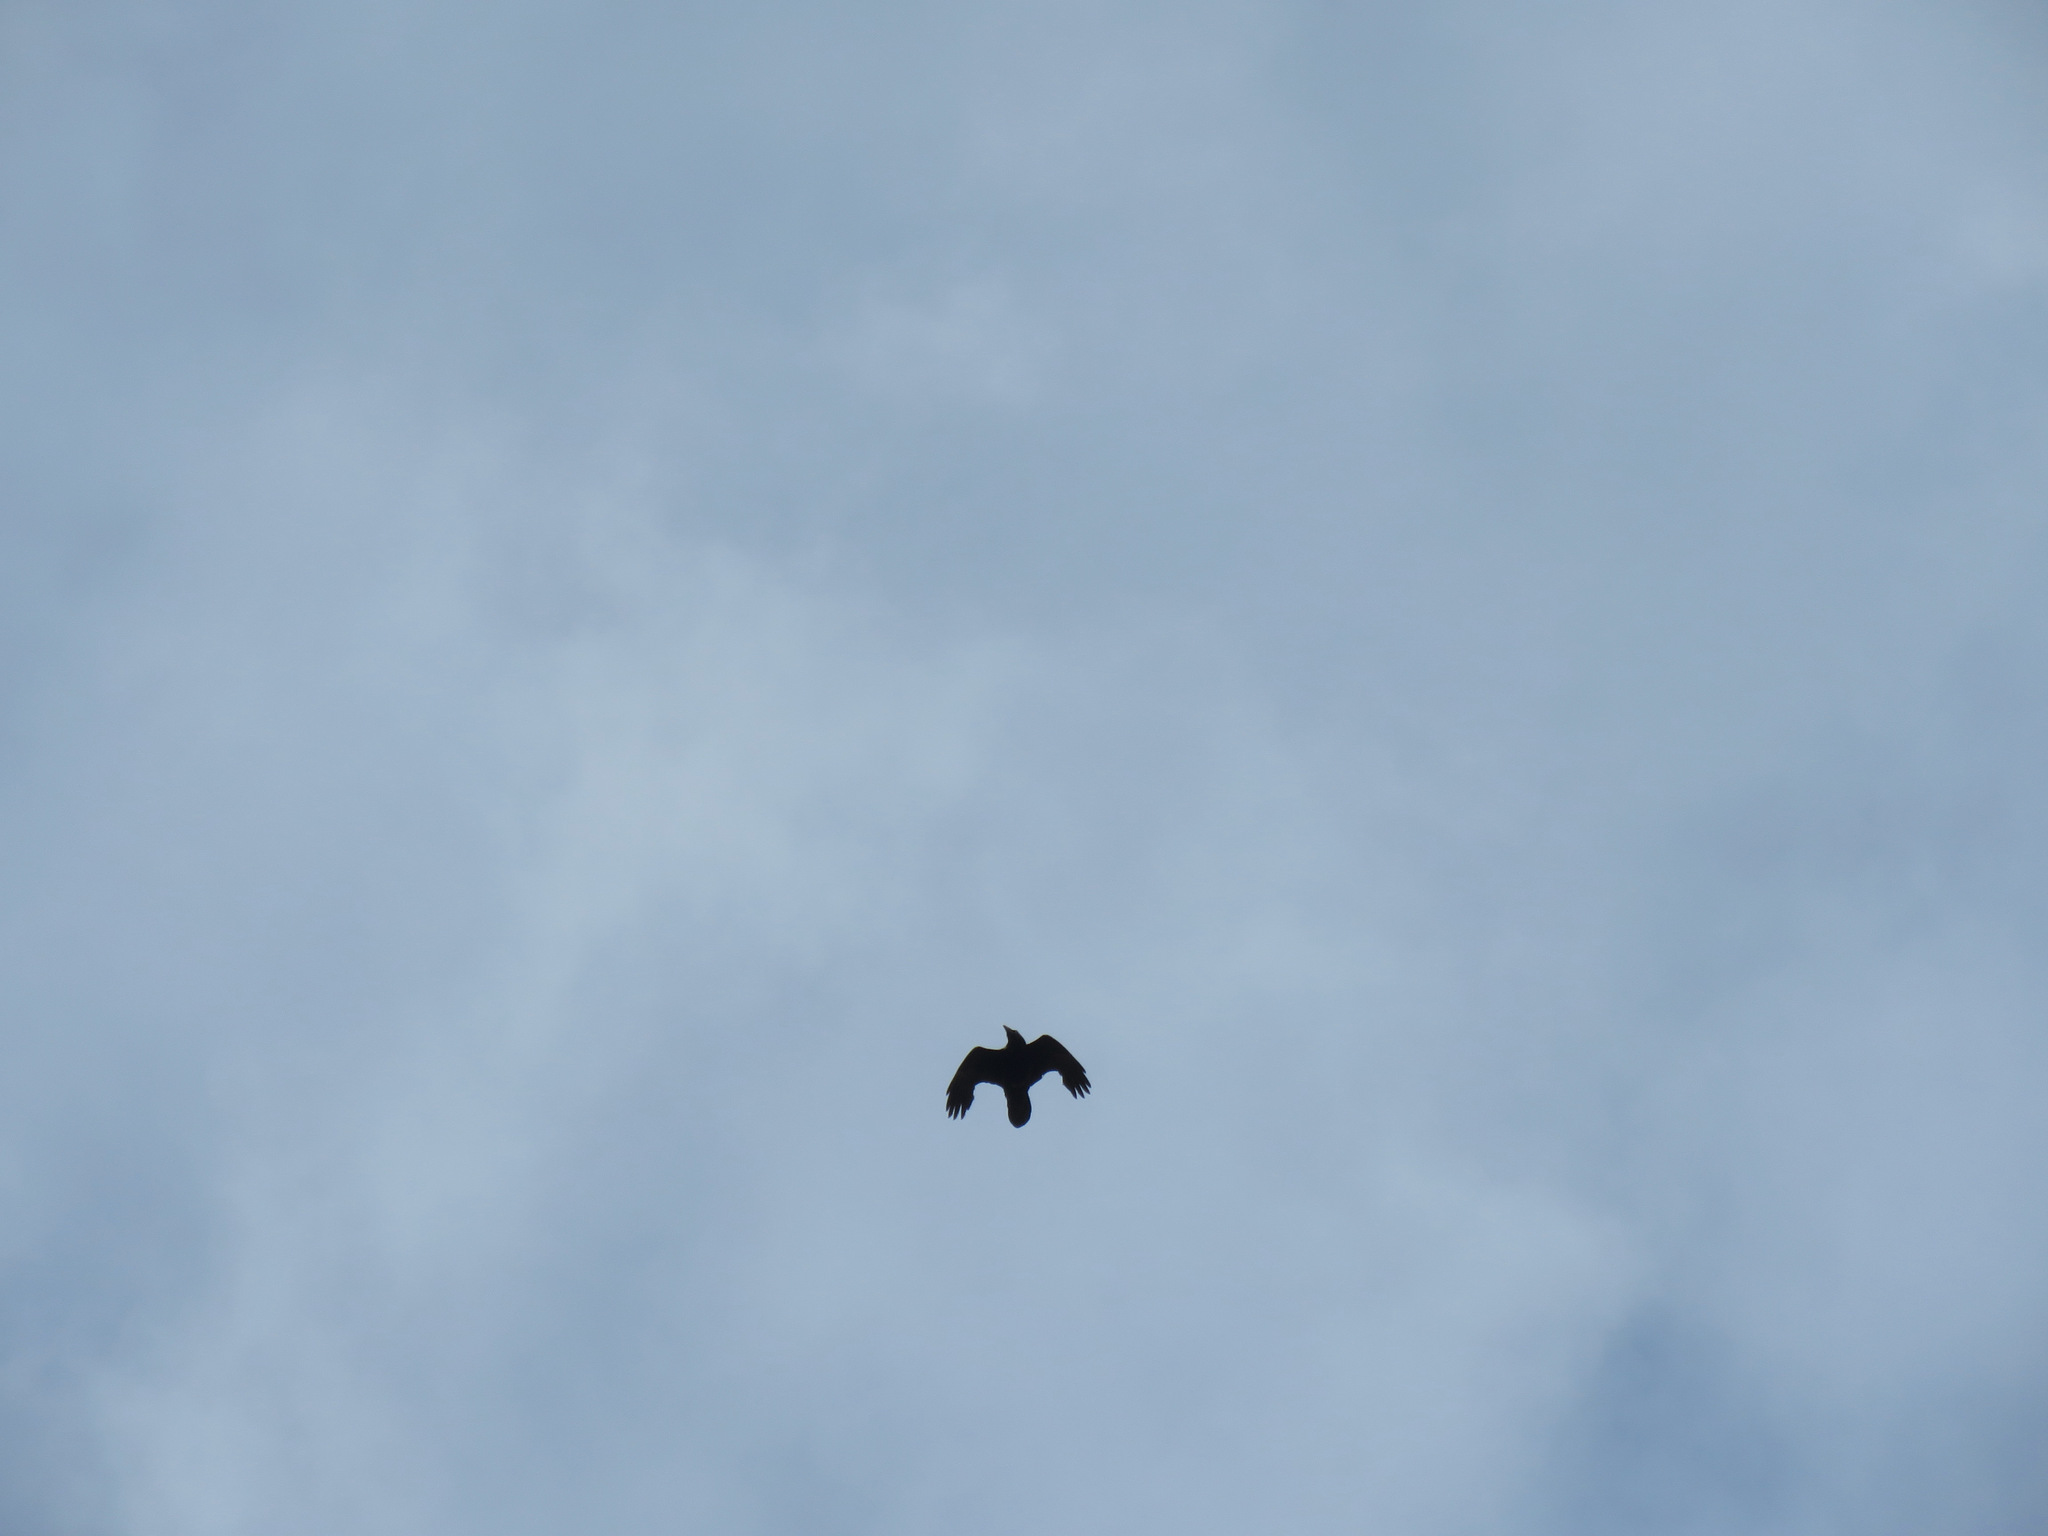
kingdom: Animalia
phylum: Chordata
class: Aves
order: Passeriformes
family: Corvidae
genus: Corvus
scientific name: Corvus corax
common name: Common raven
